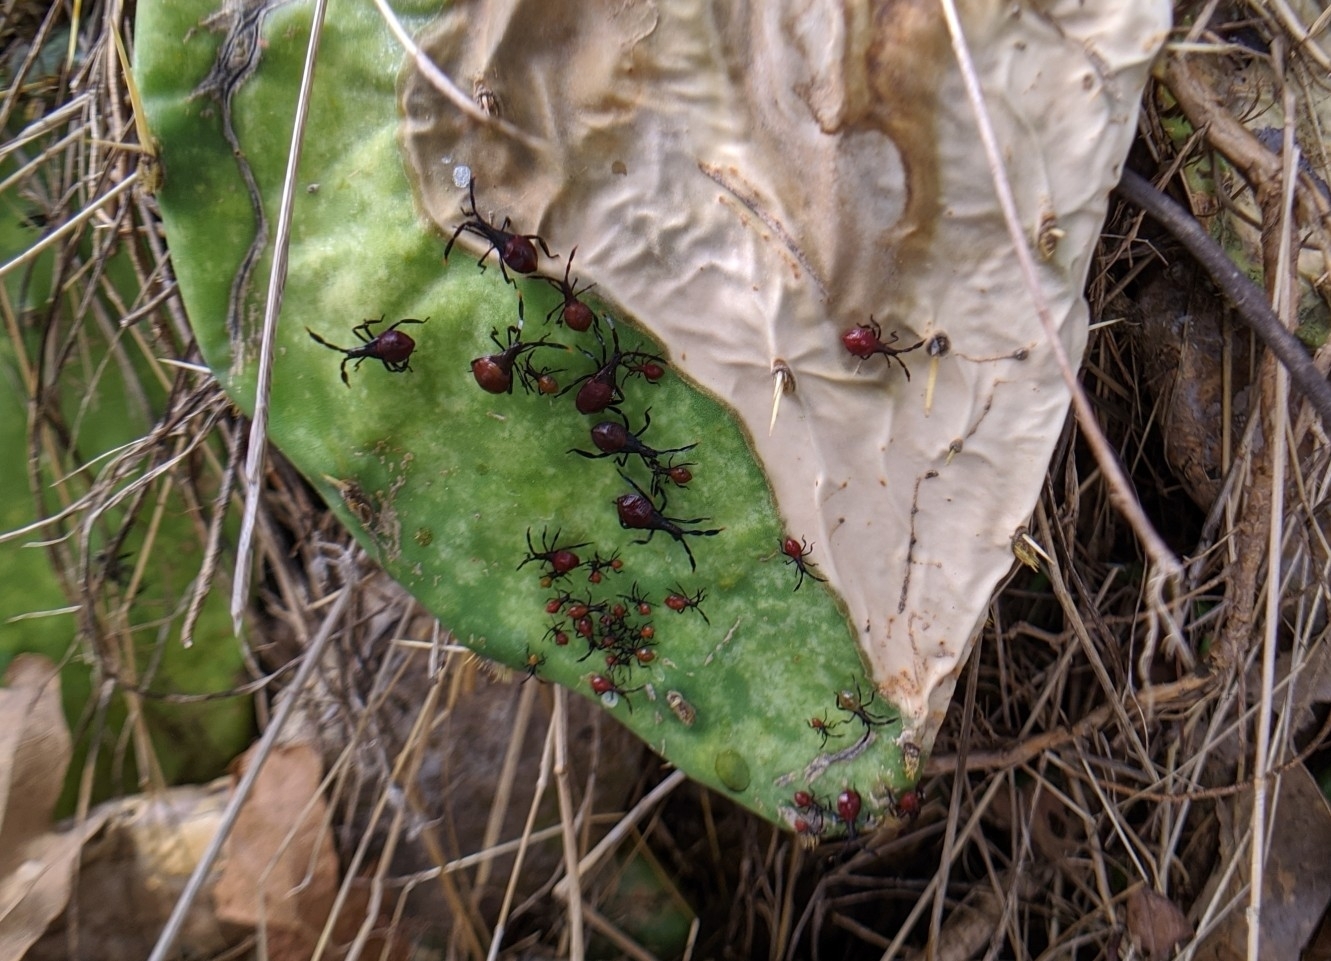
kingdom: Animalia
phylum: Arthropoda
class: Insecta
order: Hemiptera
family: Coreidae
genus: Chelinidea
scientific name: Chelinidea vittiger
